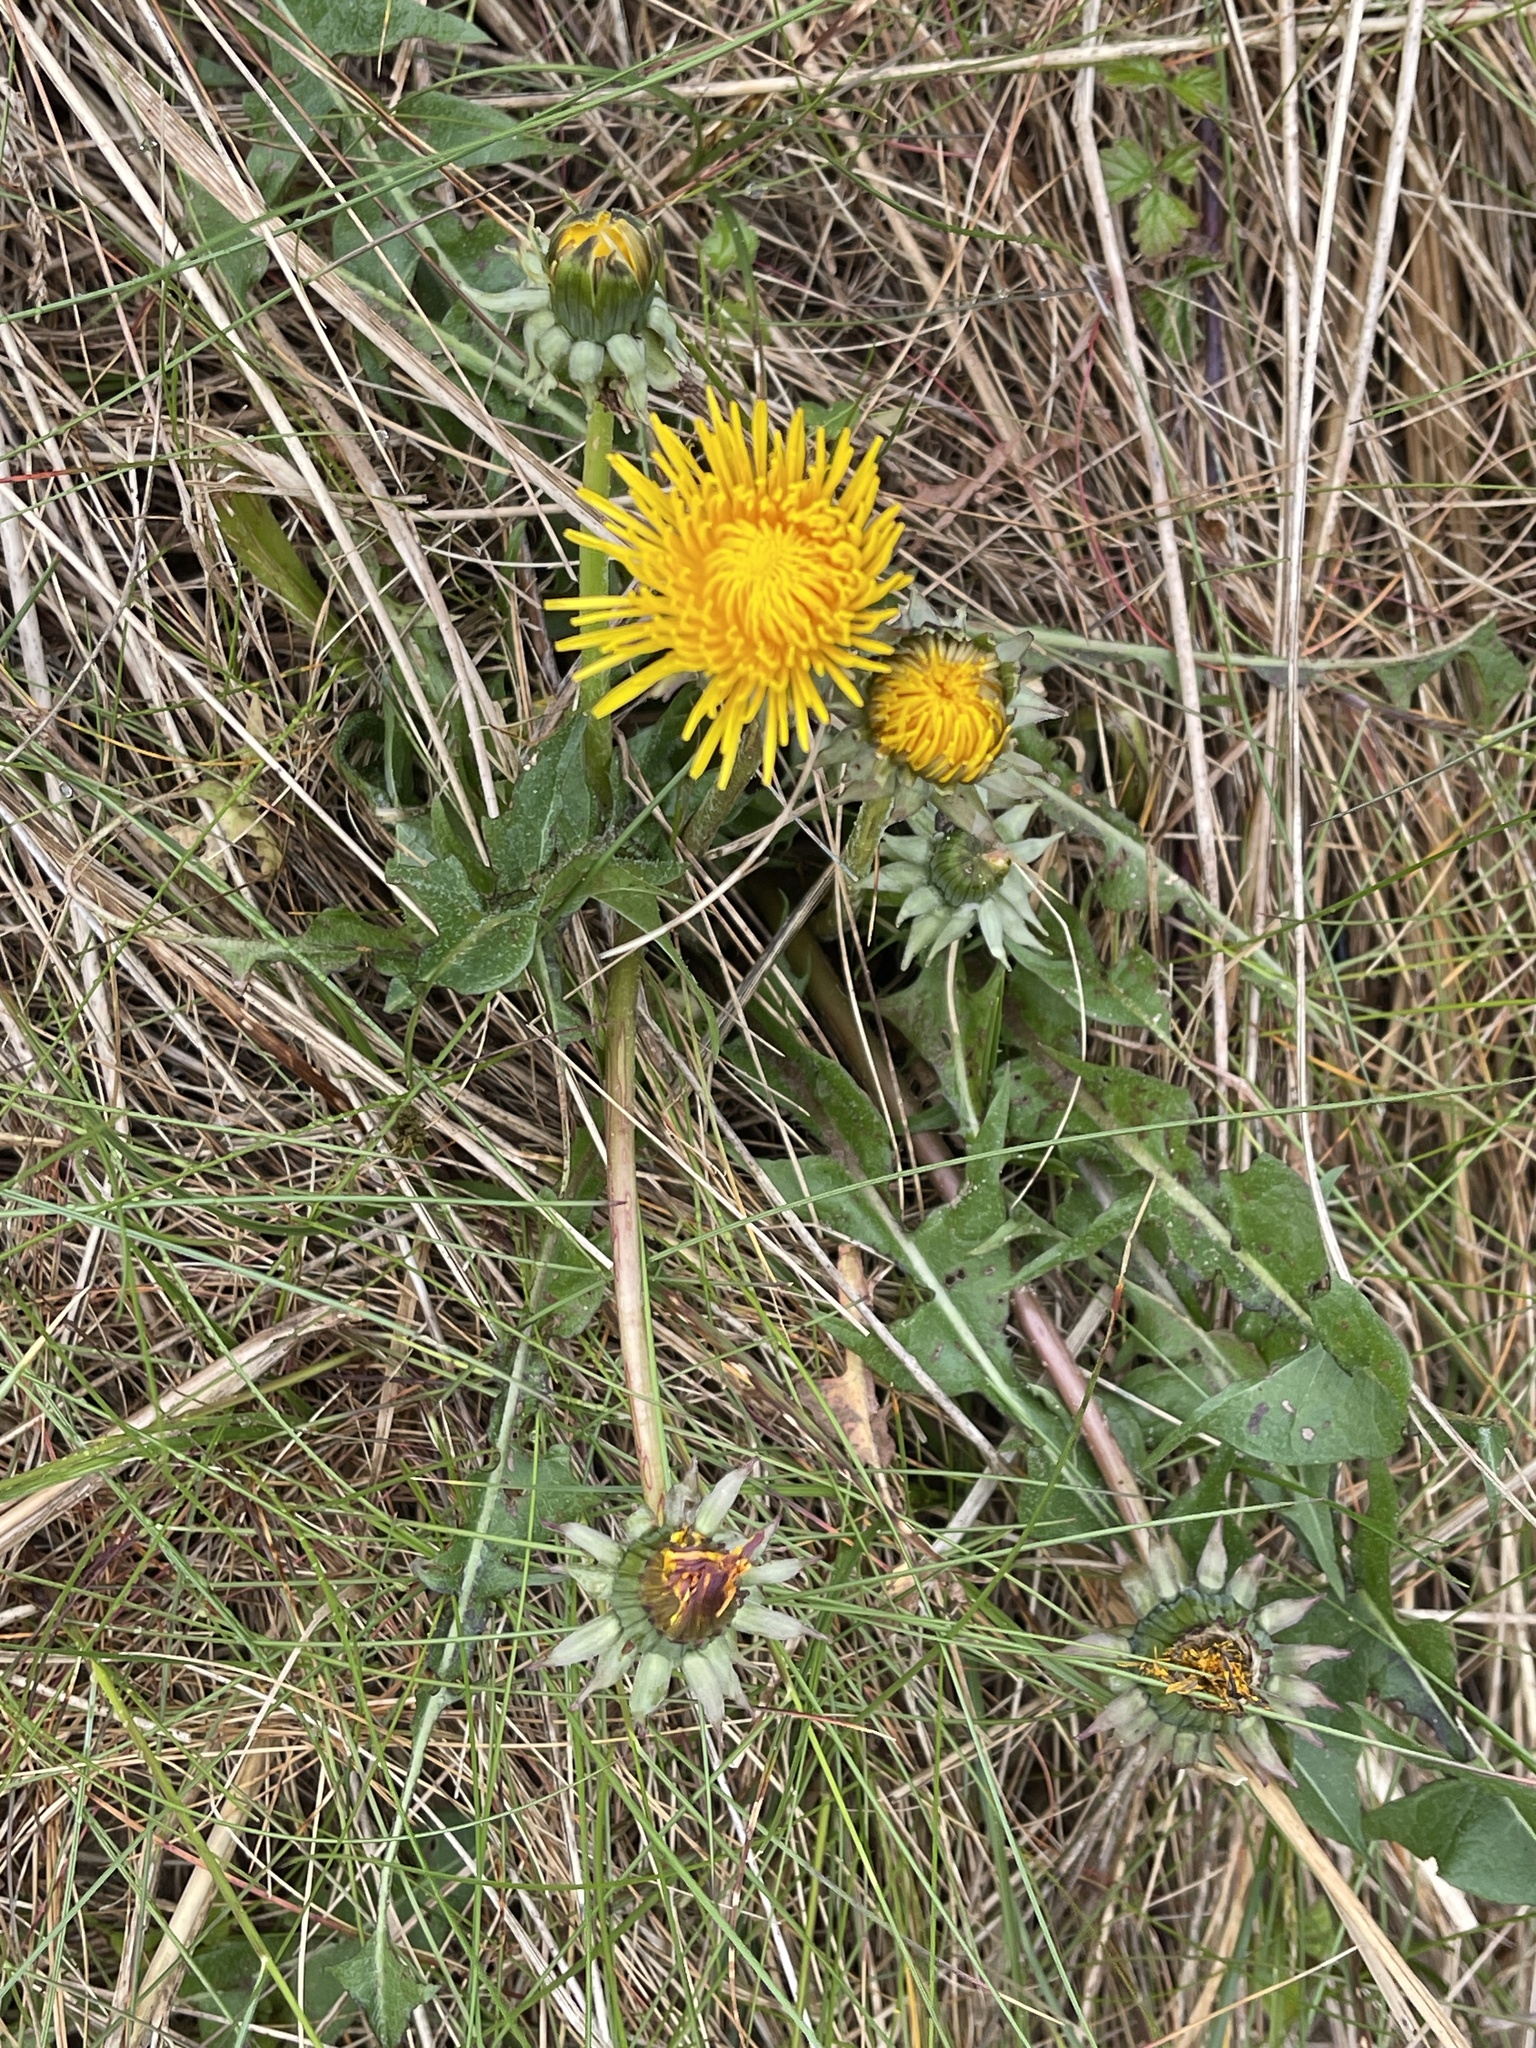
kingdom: Plantae
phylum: Tracheophyta
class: Magnoliopsida
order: Asterales
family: Asteraceae
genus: Taraxacum
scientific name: Taraxacum officinale
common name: Common dandelion
